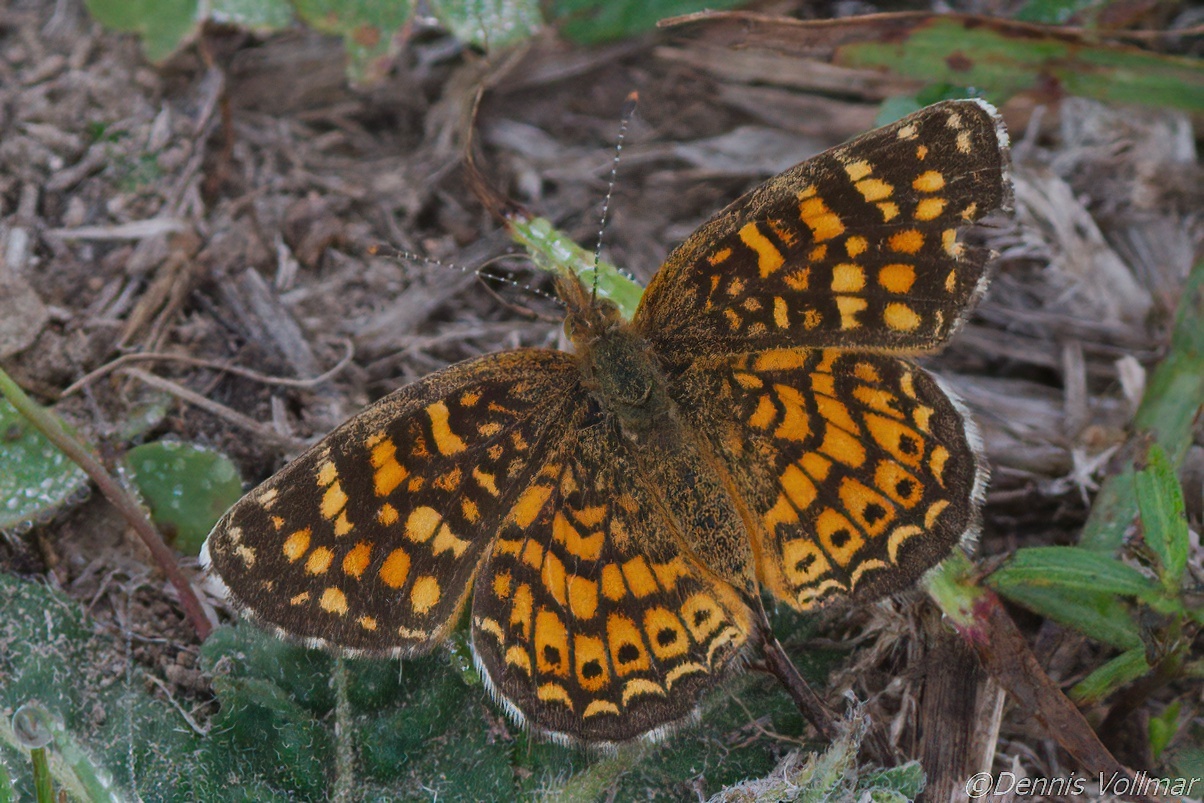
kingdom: Animalia
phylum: Arthropoda
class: Insecta
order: Lepidoptera
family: Nymphalidae
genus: Phyciodes
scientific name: Phyciodes vesta
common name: Vesta crescent
